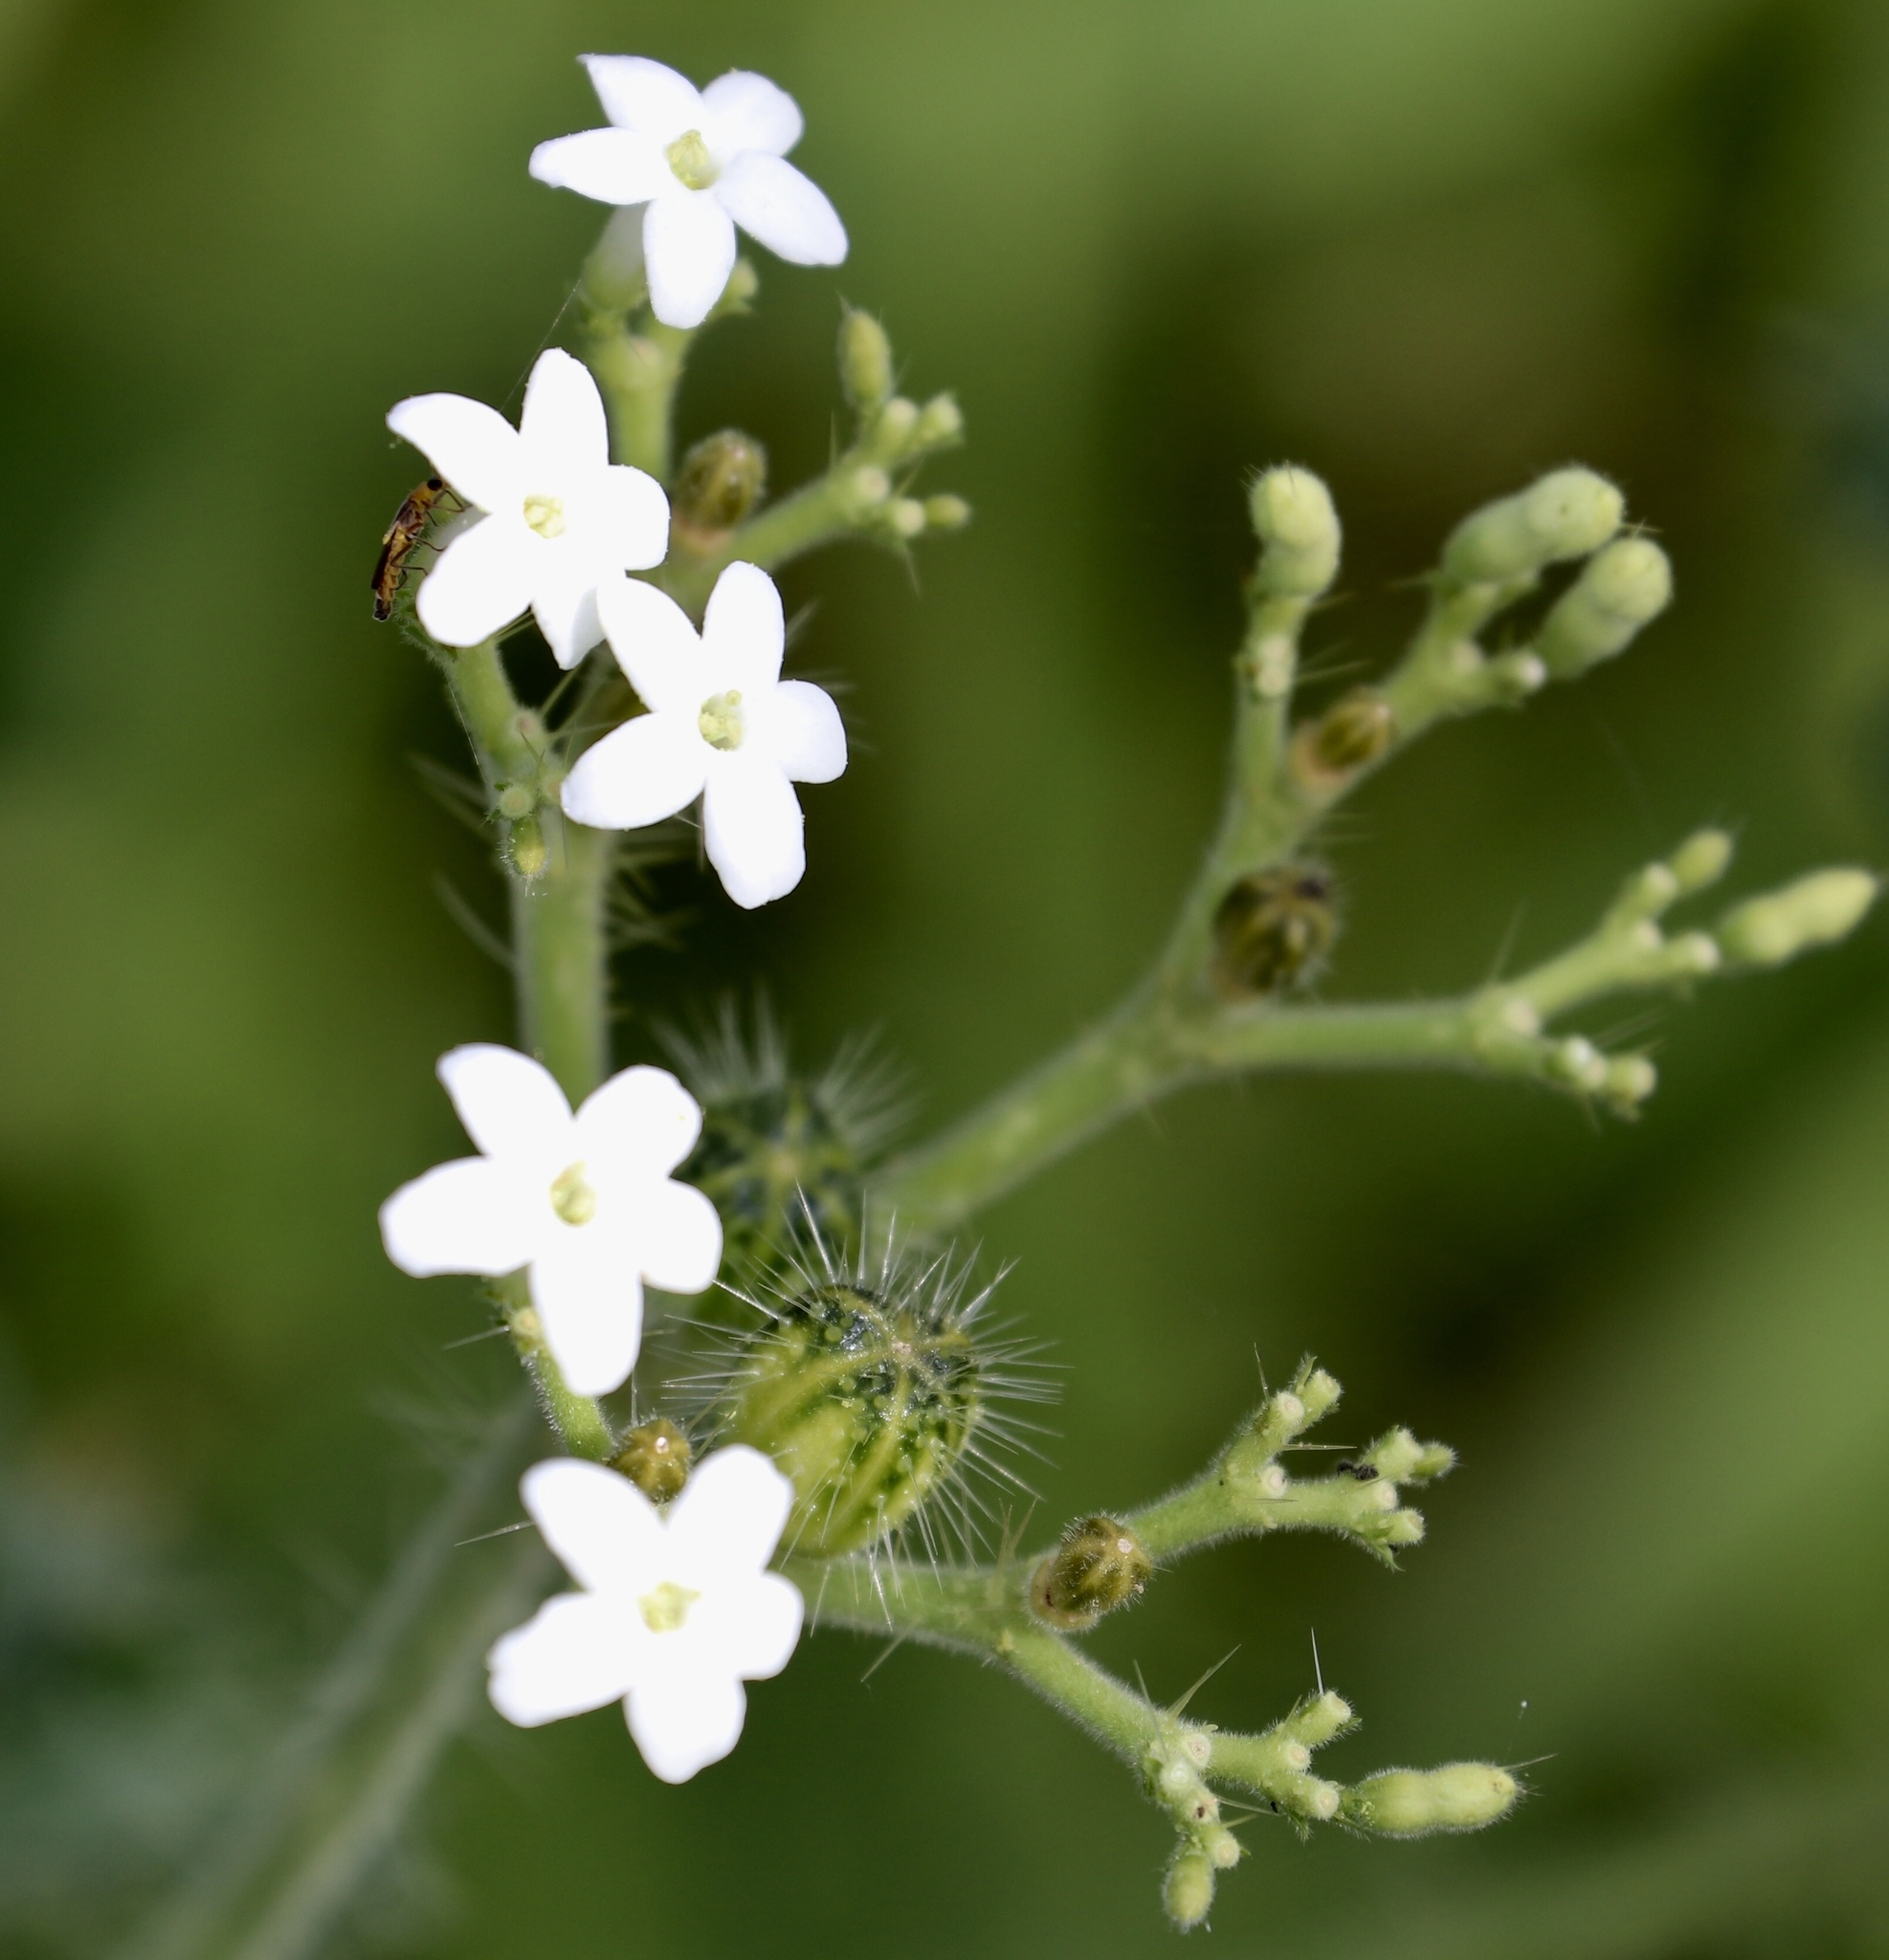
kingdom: Plantae
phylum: Tracheophyta
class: Magnoliopsida
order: Malpighiales
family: Euphorbiaceae
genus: Cnidoscolus
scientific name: Cnidoscolus aconitifolius
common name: Cabbage-star
